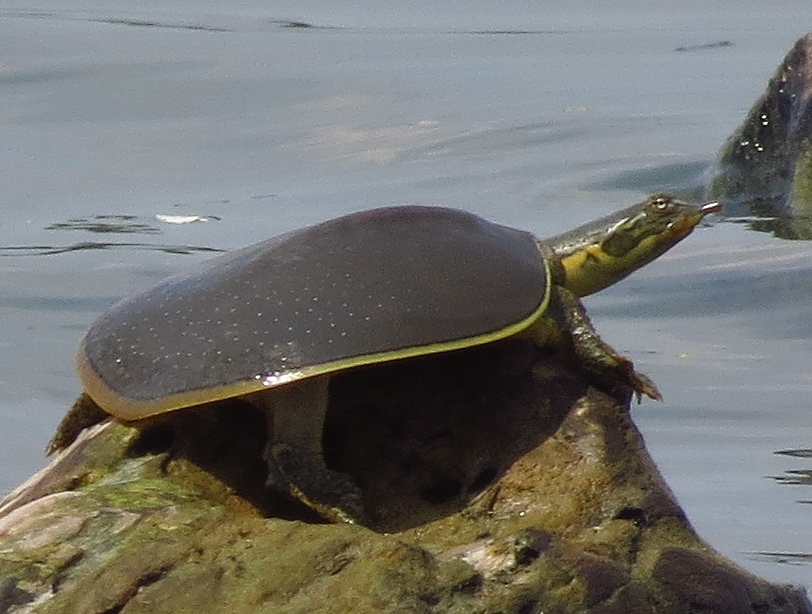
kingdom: Animalia
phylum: Chordata
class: Testudines
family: Trionychidae
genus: Apalone
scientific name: Apalone spinifera
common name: Spiny softshell turtle
